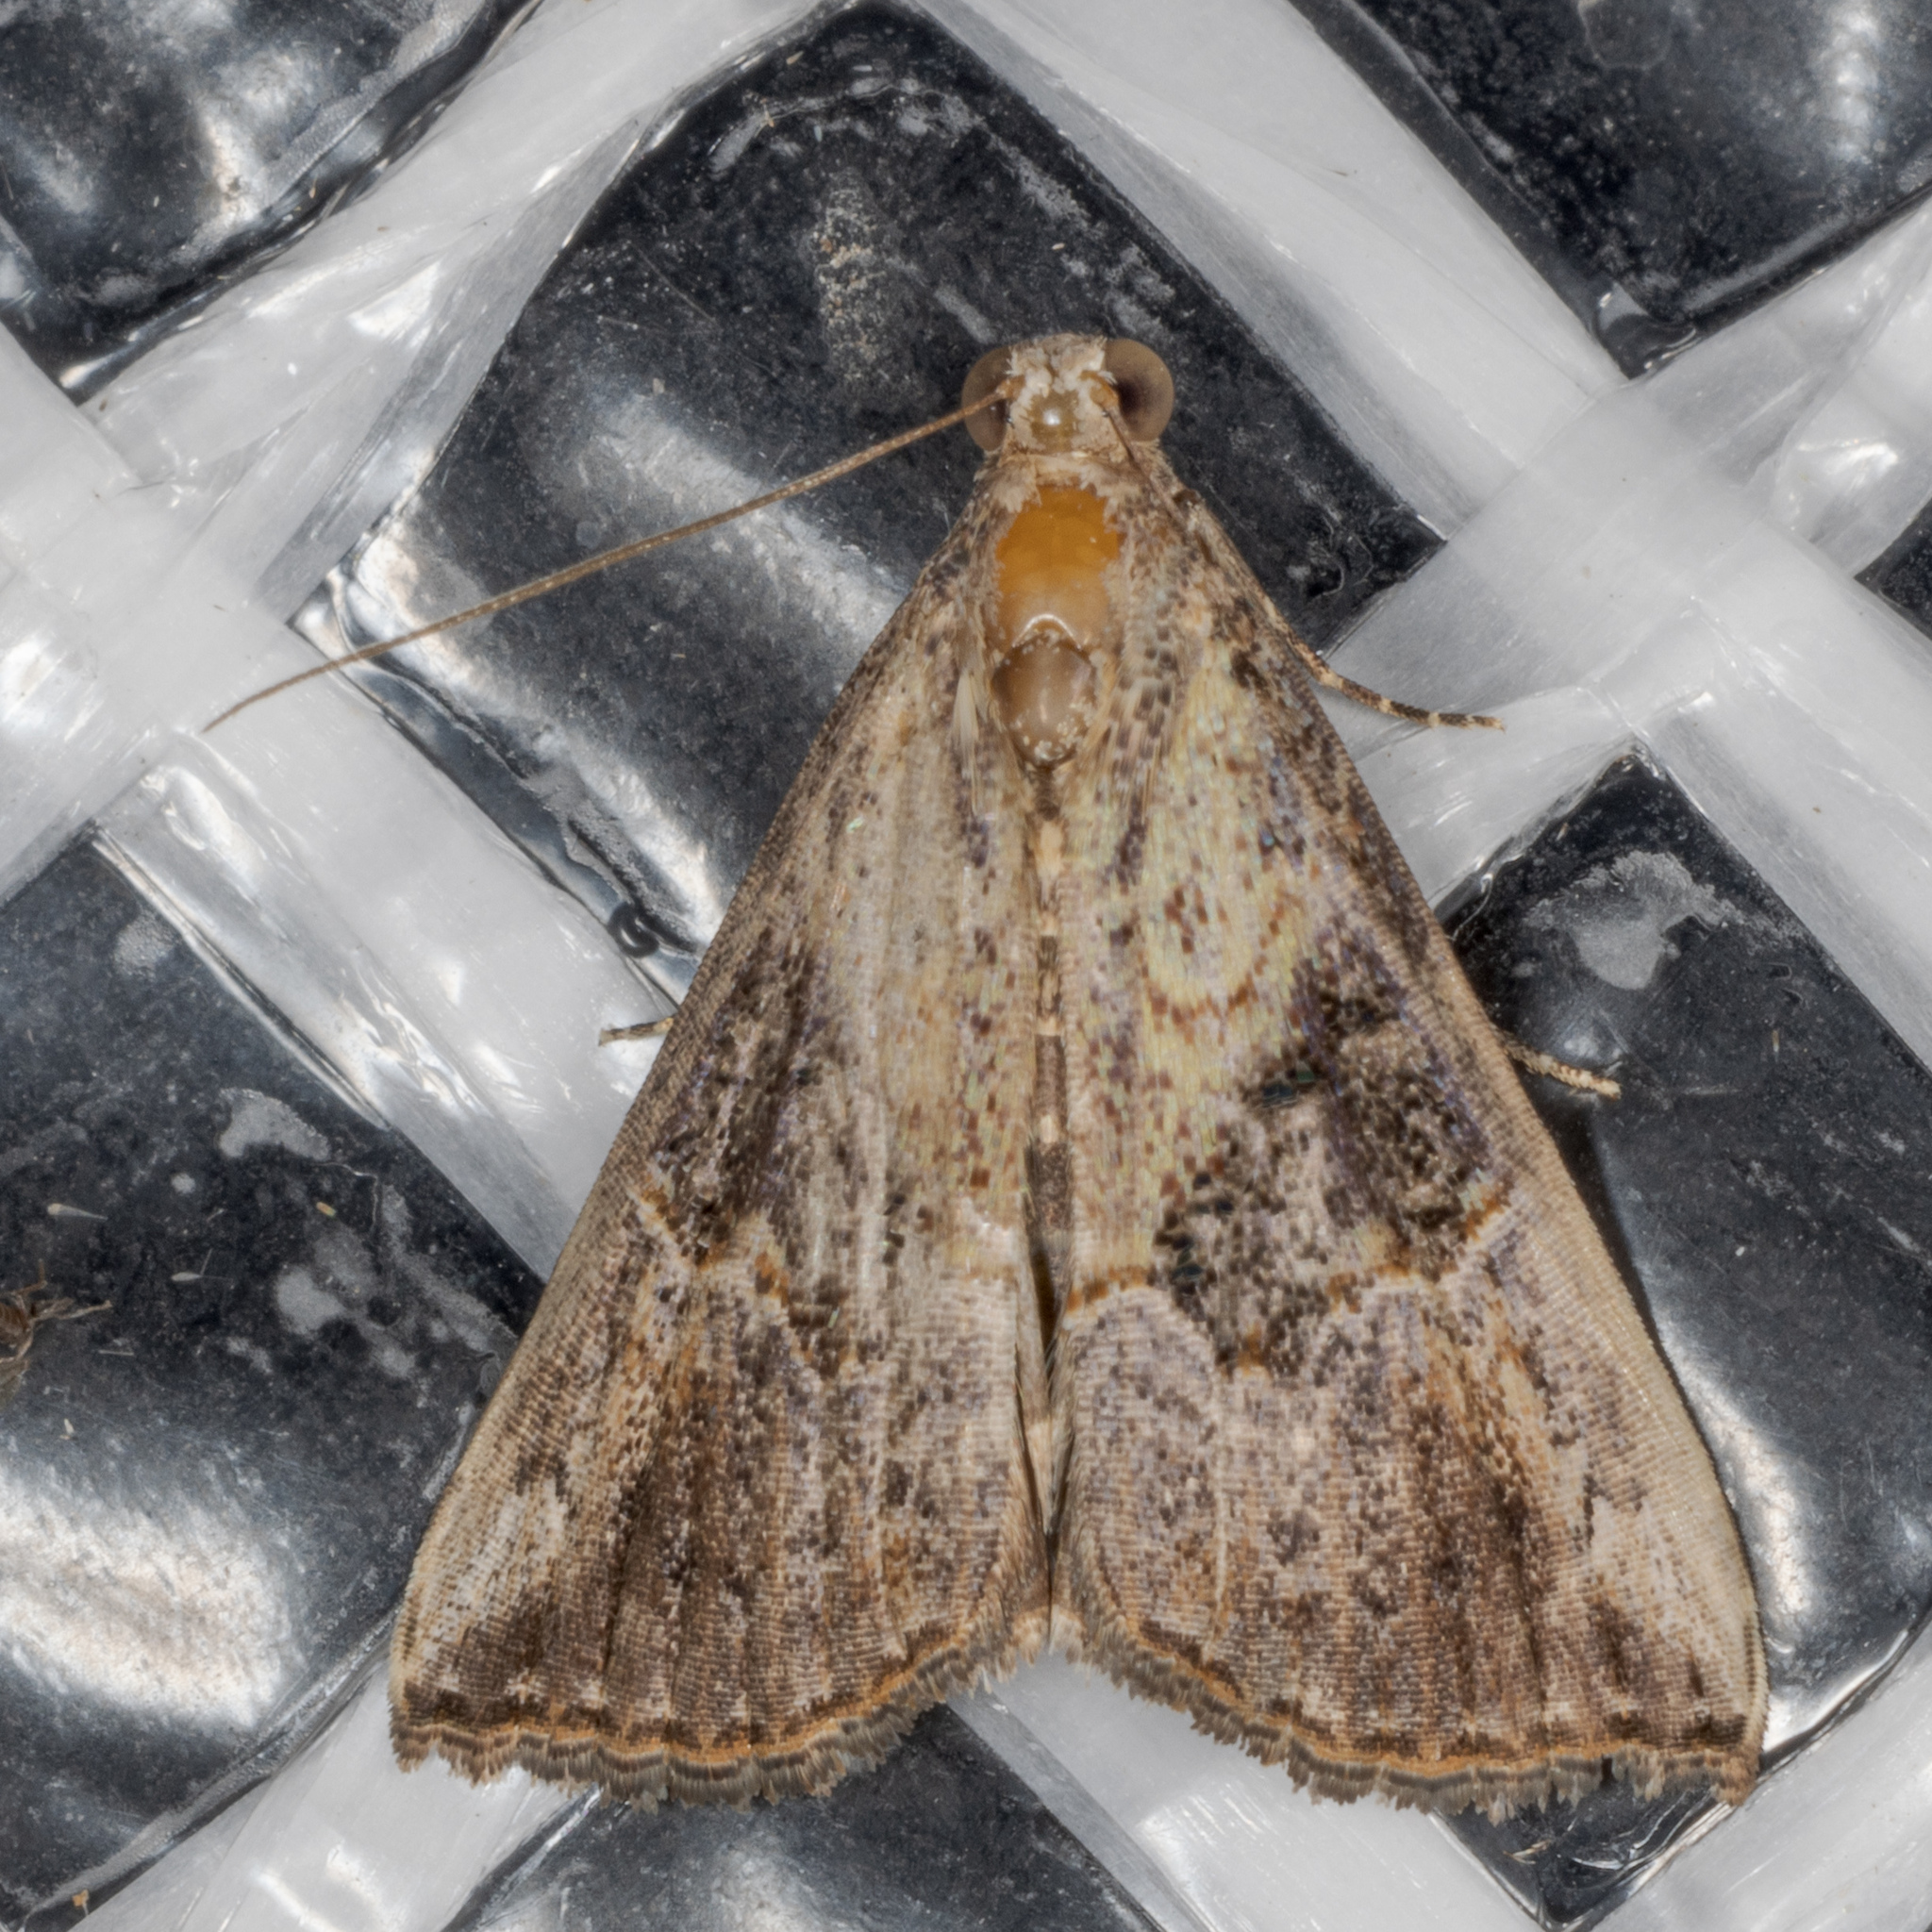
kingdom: Animalia
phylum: Arthropoda
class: Insecta
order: Lepidoptera
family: Erebidae
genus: Hypena
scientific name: Hypena minualis
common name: Sooty snout
